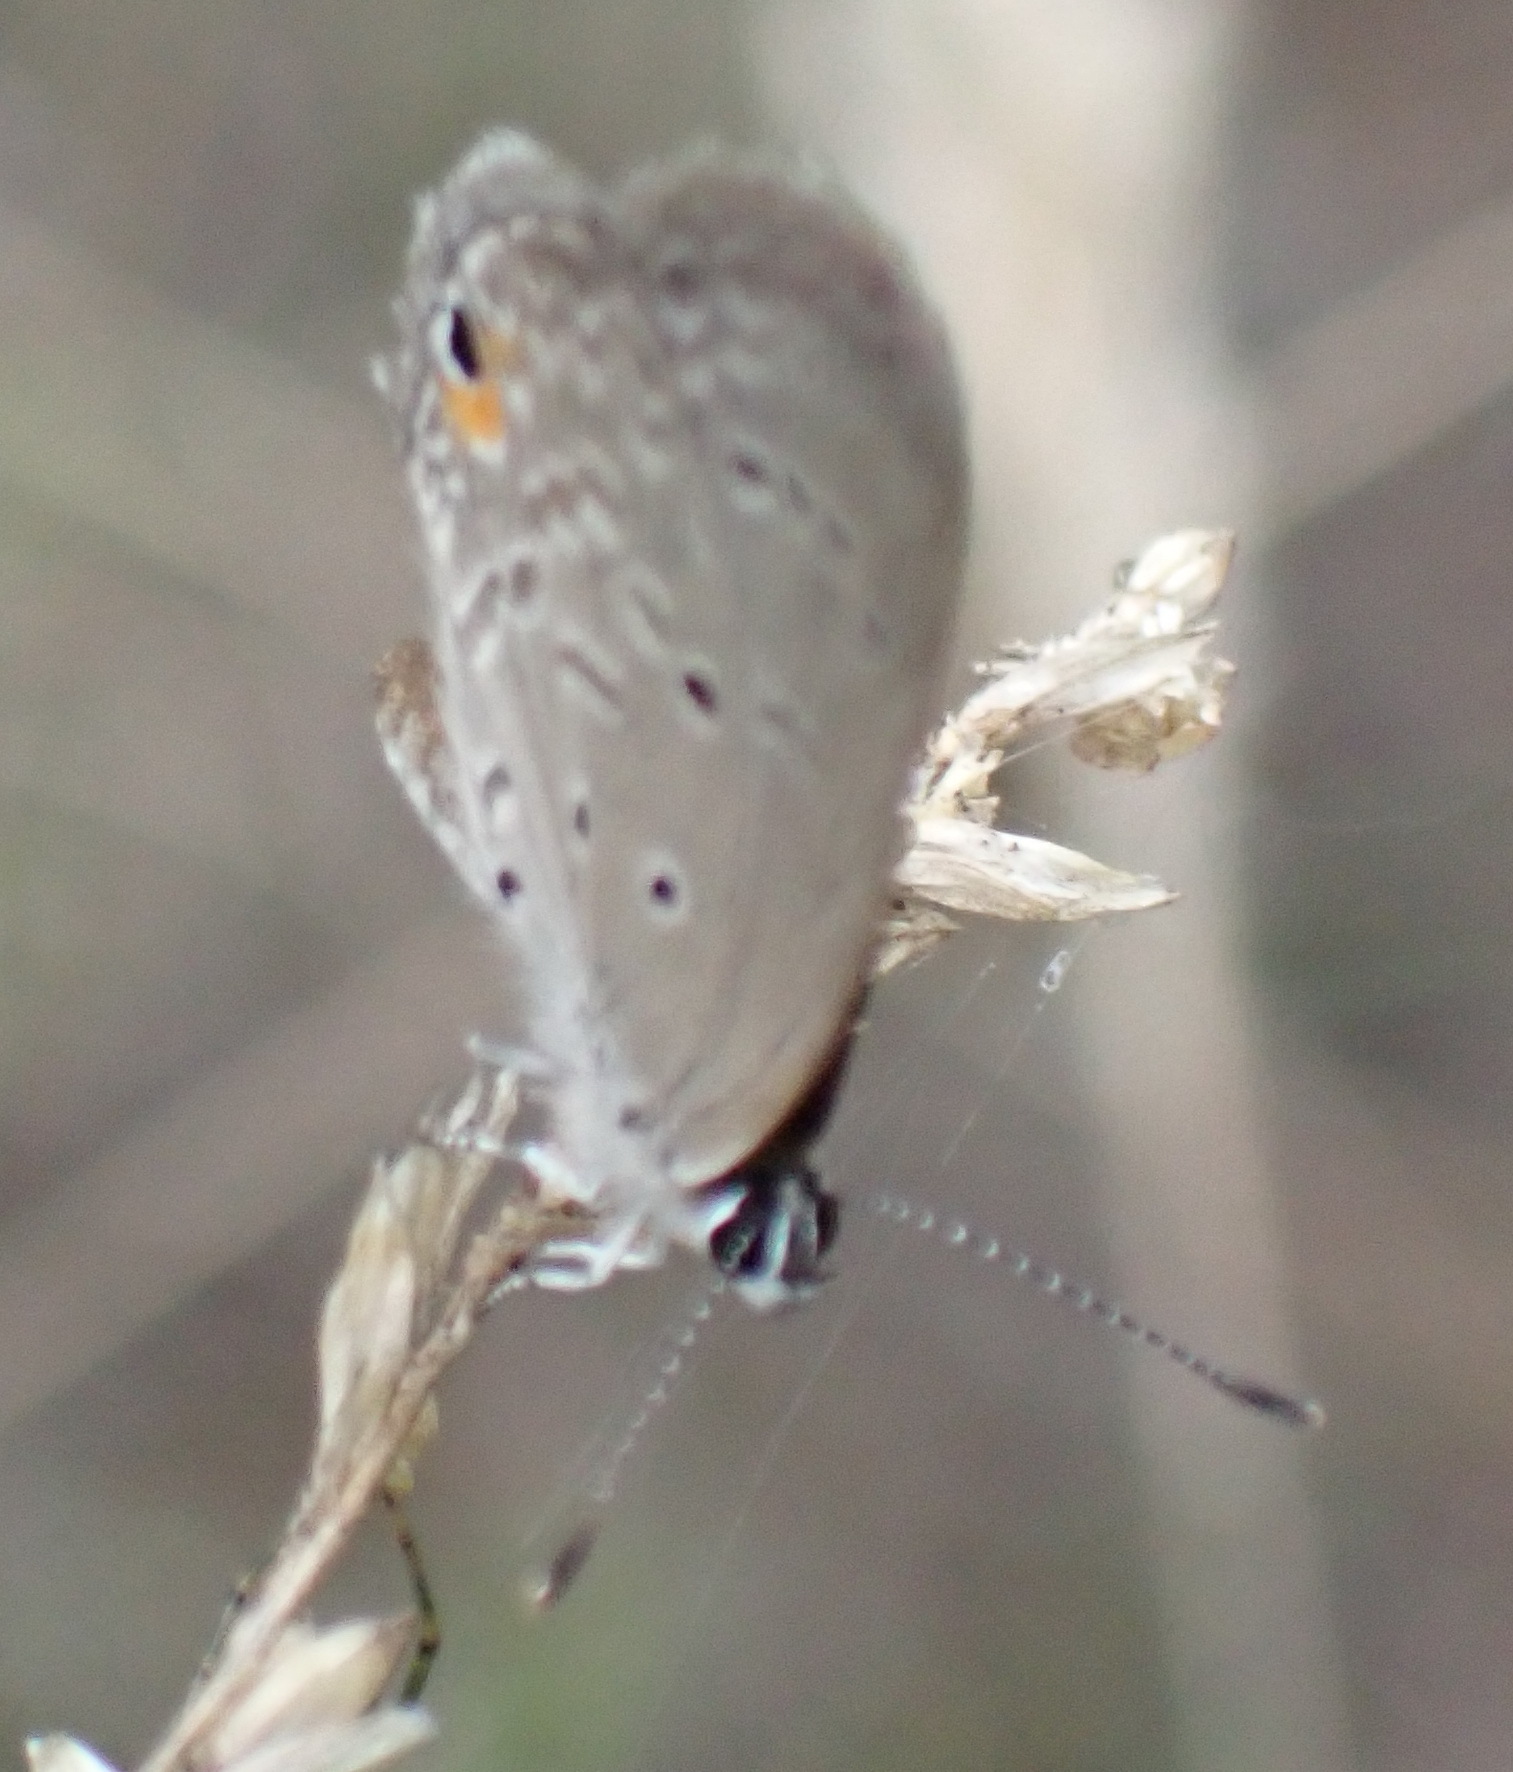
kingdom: Animalia
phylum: Arthropoda
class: Insecta
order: Lepidoptera
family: Lycaenidae
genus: Eicochrysops
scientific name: Eicochrysops messapus
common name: Cupreous blue
